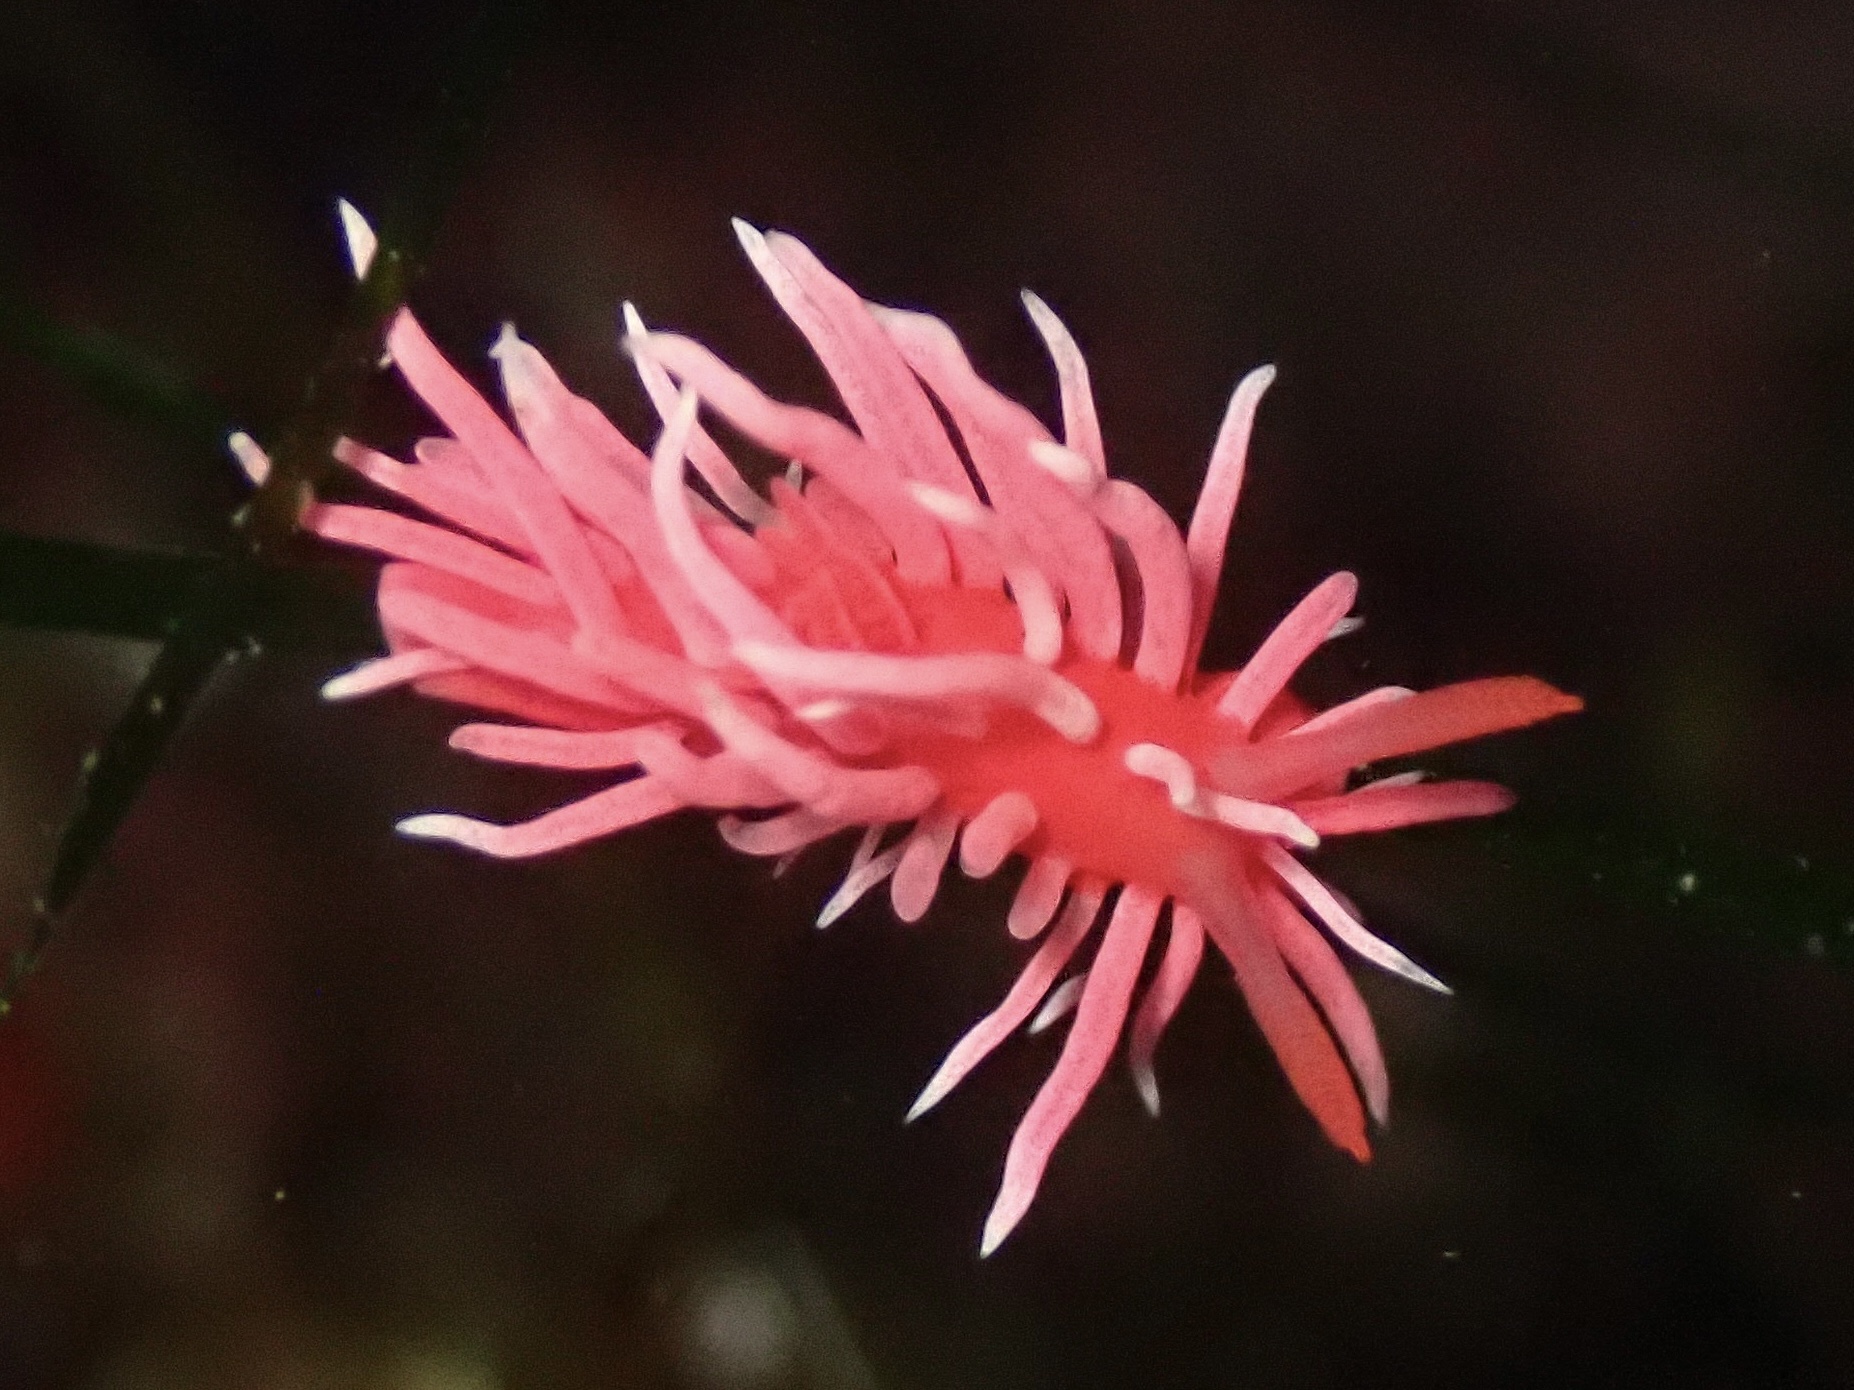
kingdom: Animalia
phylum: Mollusca
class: Gastropoda
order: Nudibranchia
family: Goniodorididae
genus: Okenia
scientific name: Okenia
